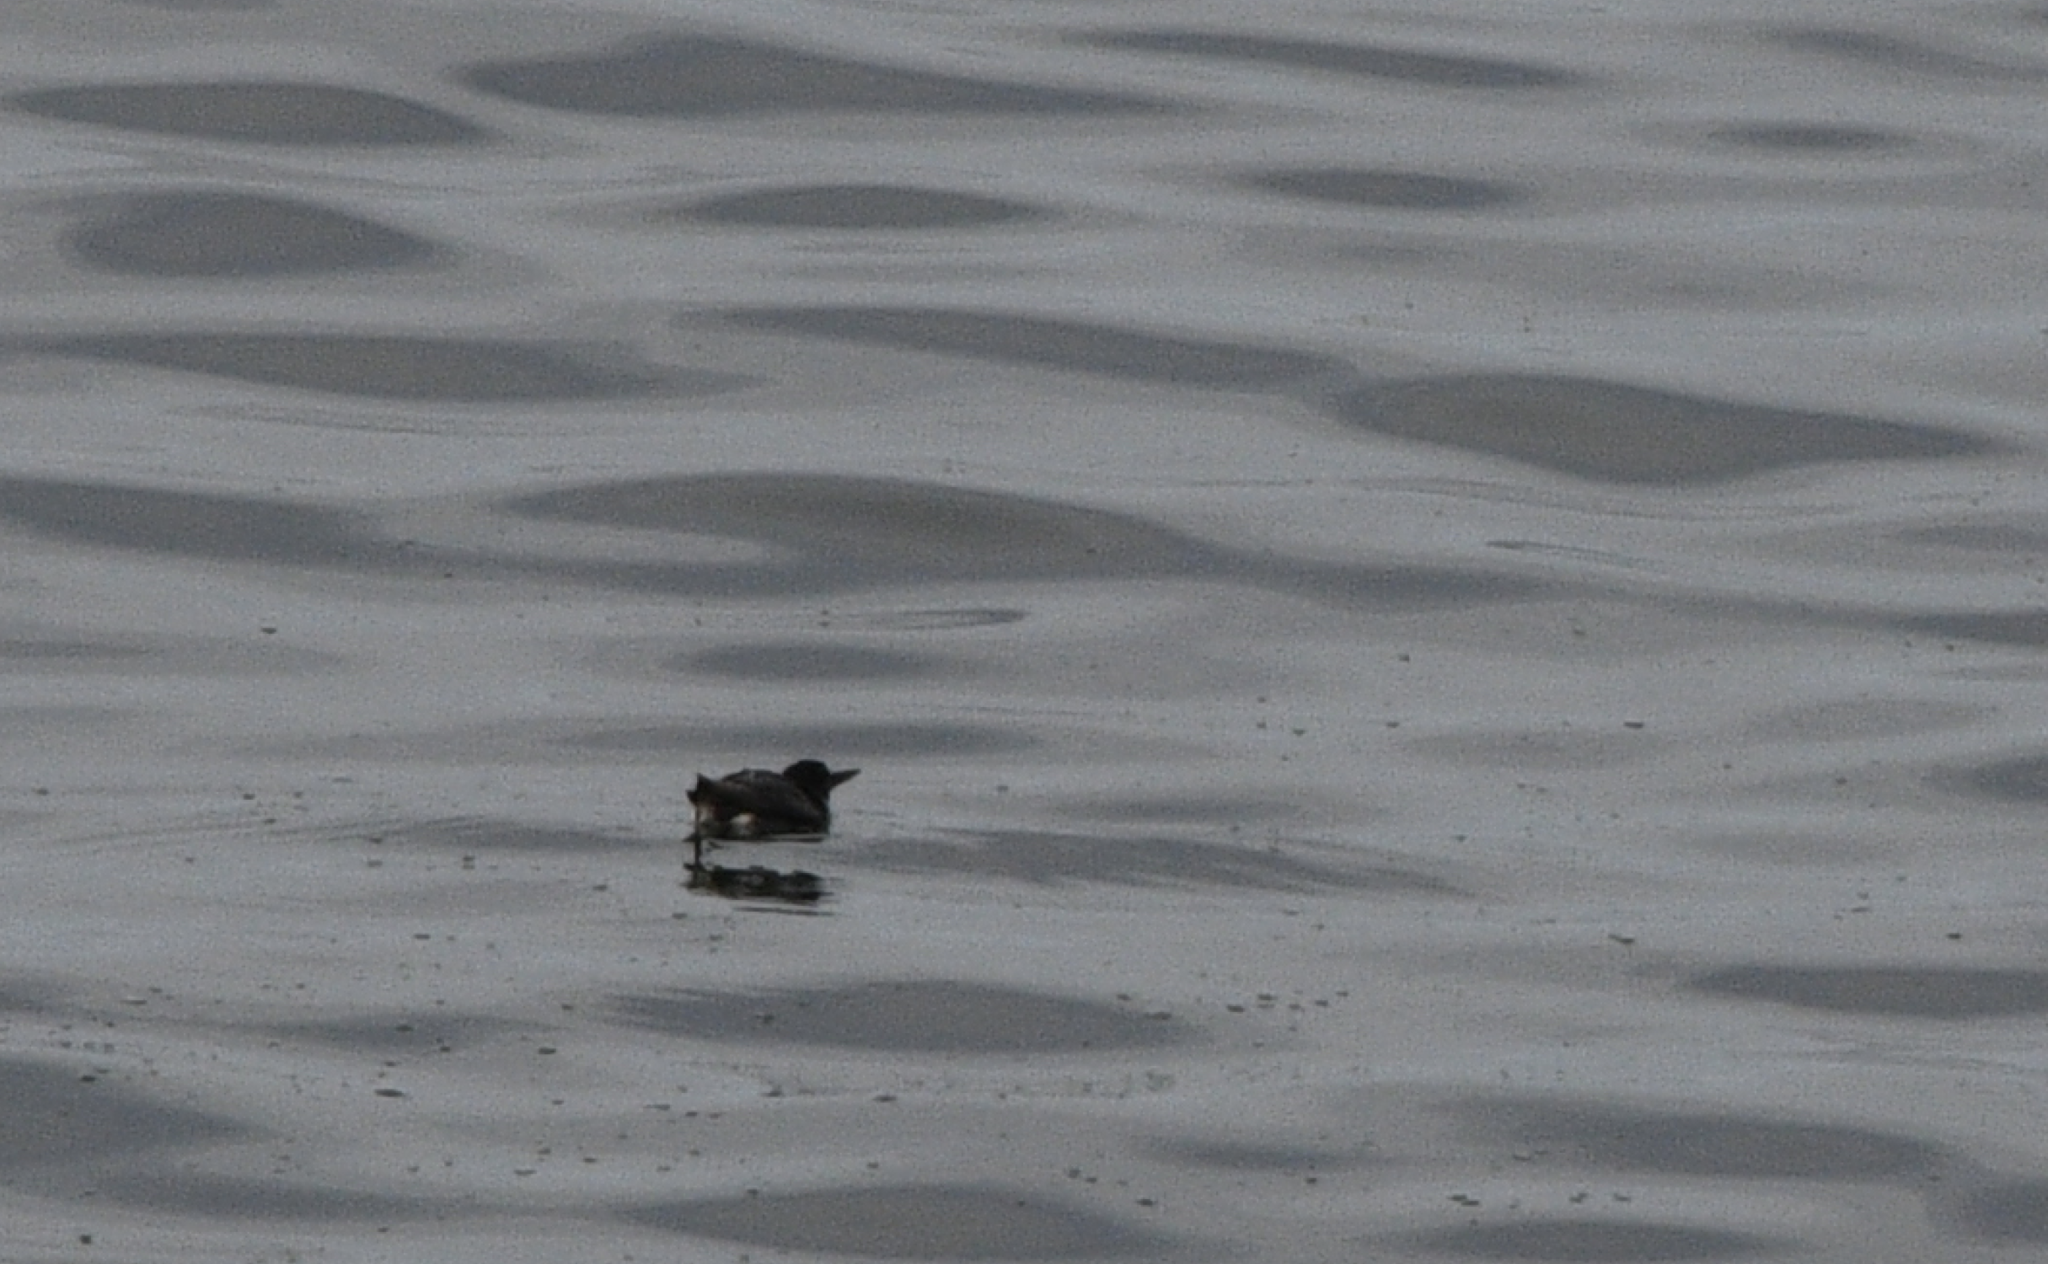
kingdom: Animalia
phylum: Chordata
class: Aves
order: Charadriiformes
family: Alcidae
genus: Uria
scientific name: Uria aalge
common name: Common murre
